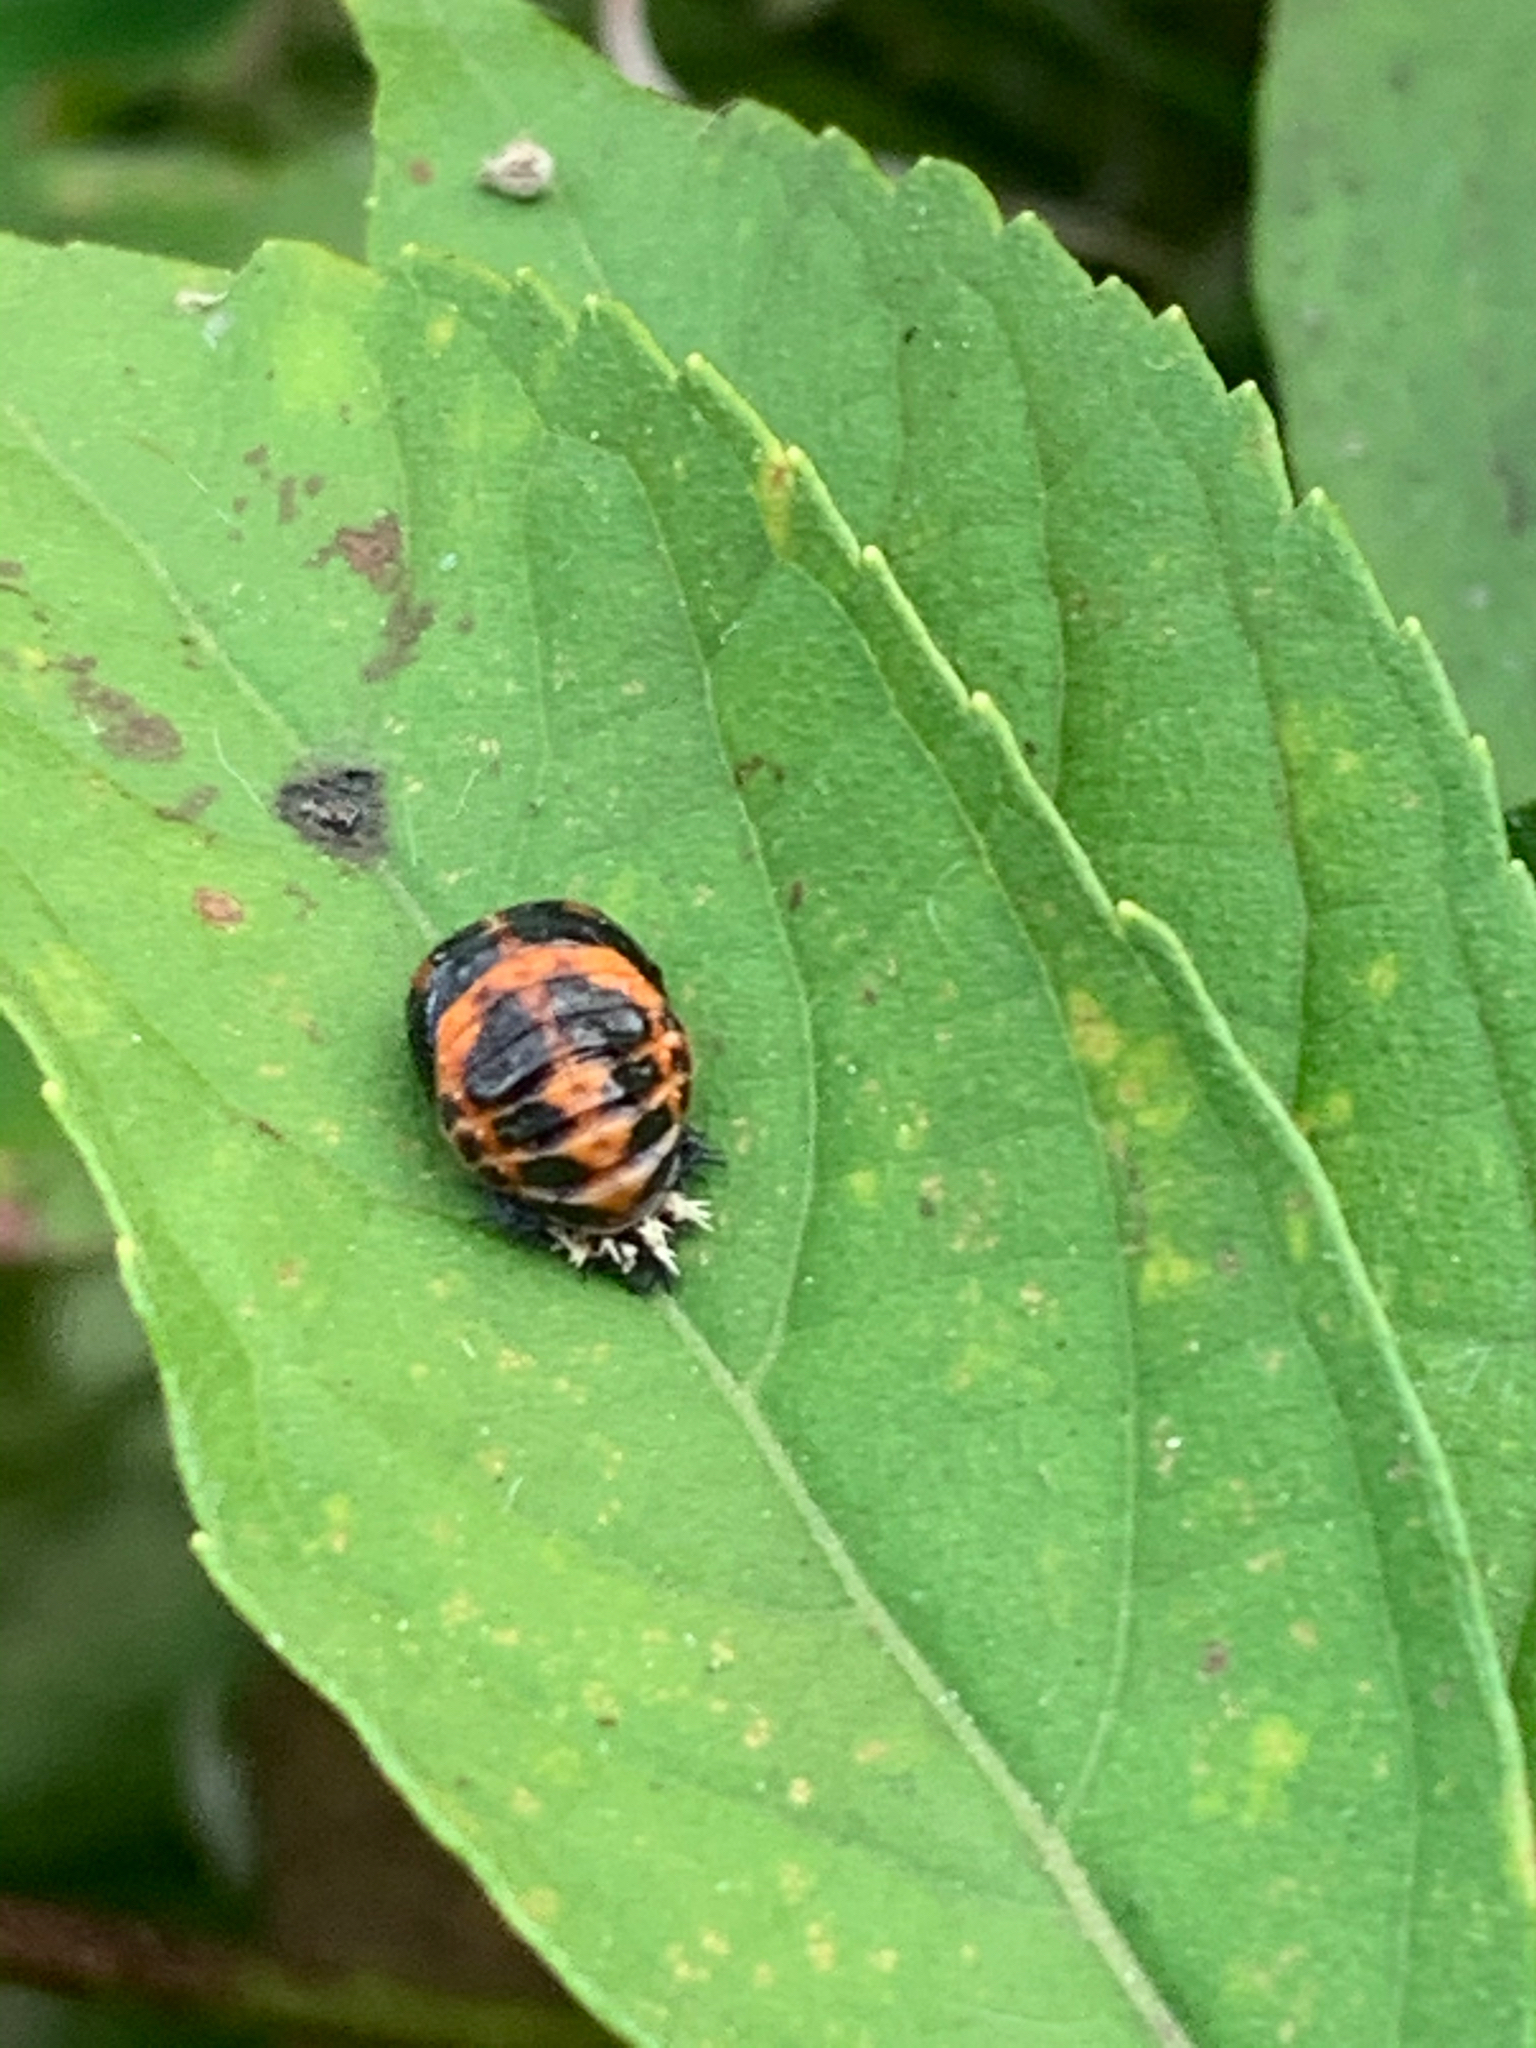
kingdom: Animalia
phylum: Arthropoda
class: Insecta
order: Coleoptera
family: Coccinellidae
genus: Harmonia
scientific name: Harmonia axyridis
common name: Harlequin ladybird
